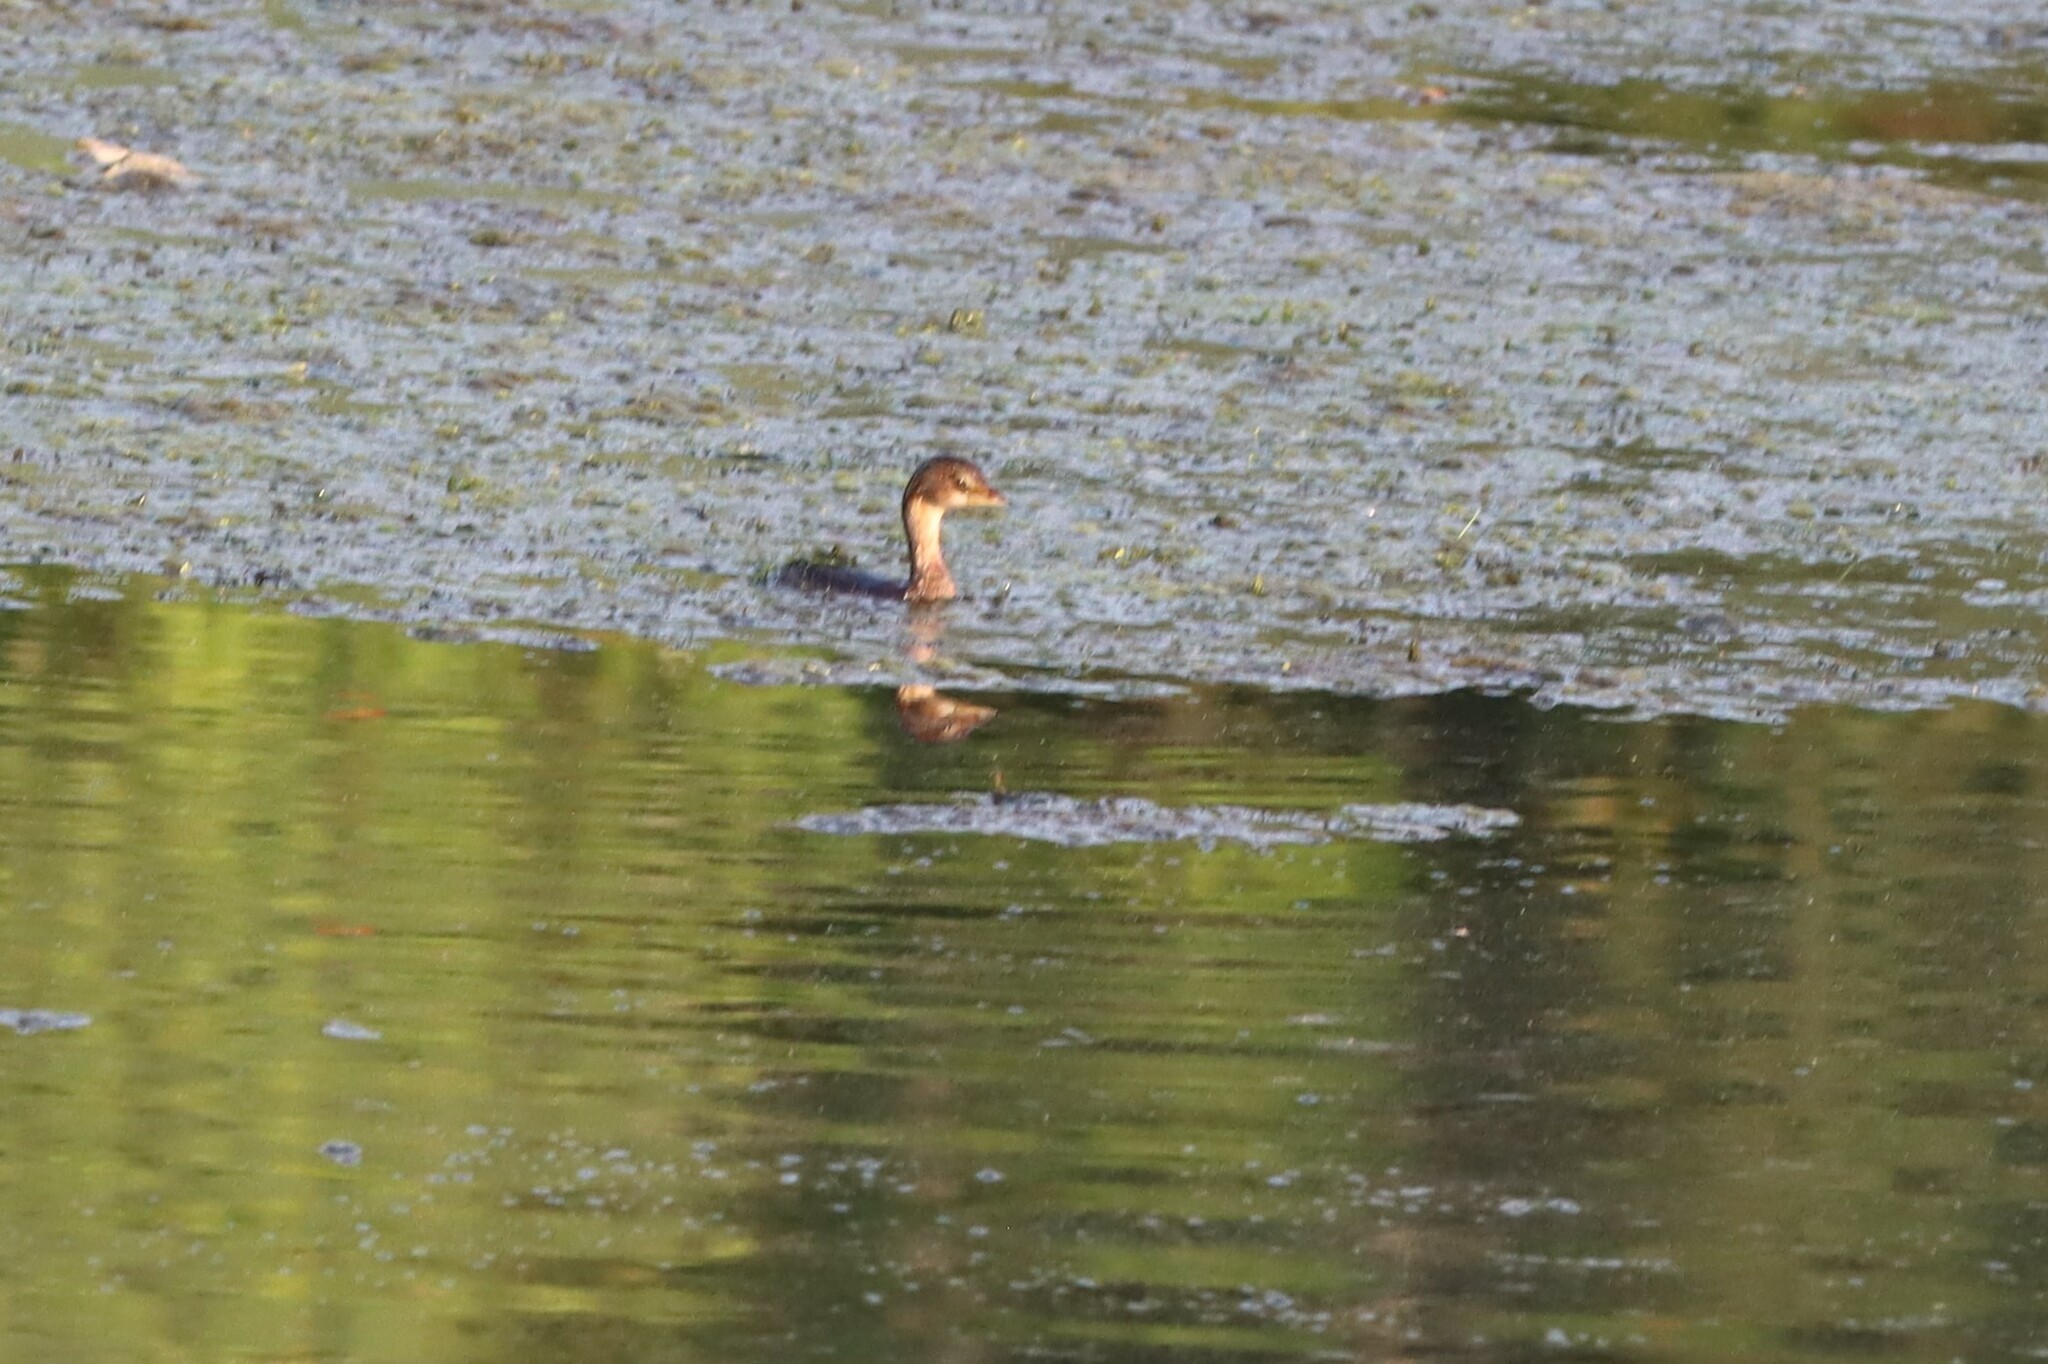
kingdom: Animalia
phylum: Chordata
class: Aves
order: Podicipediformes
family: Podicipedidae
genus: Podilymbus
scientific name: Podilymbus podiceps
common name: Pied-billed grebe
